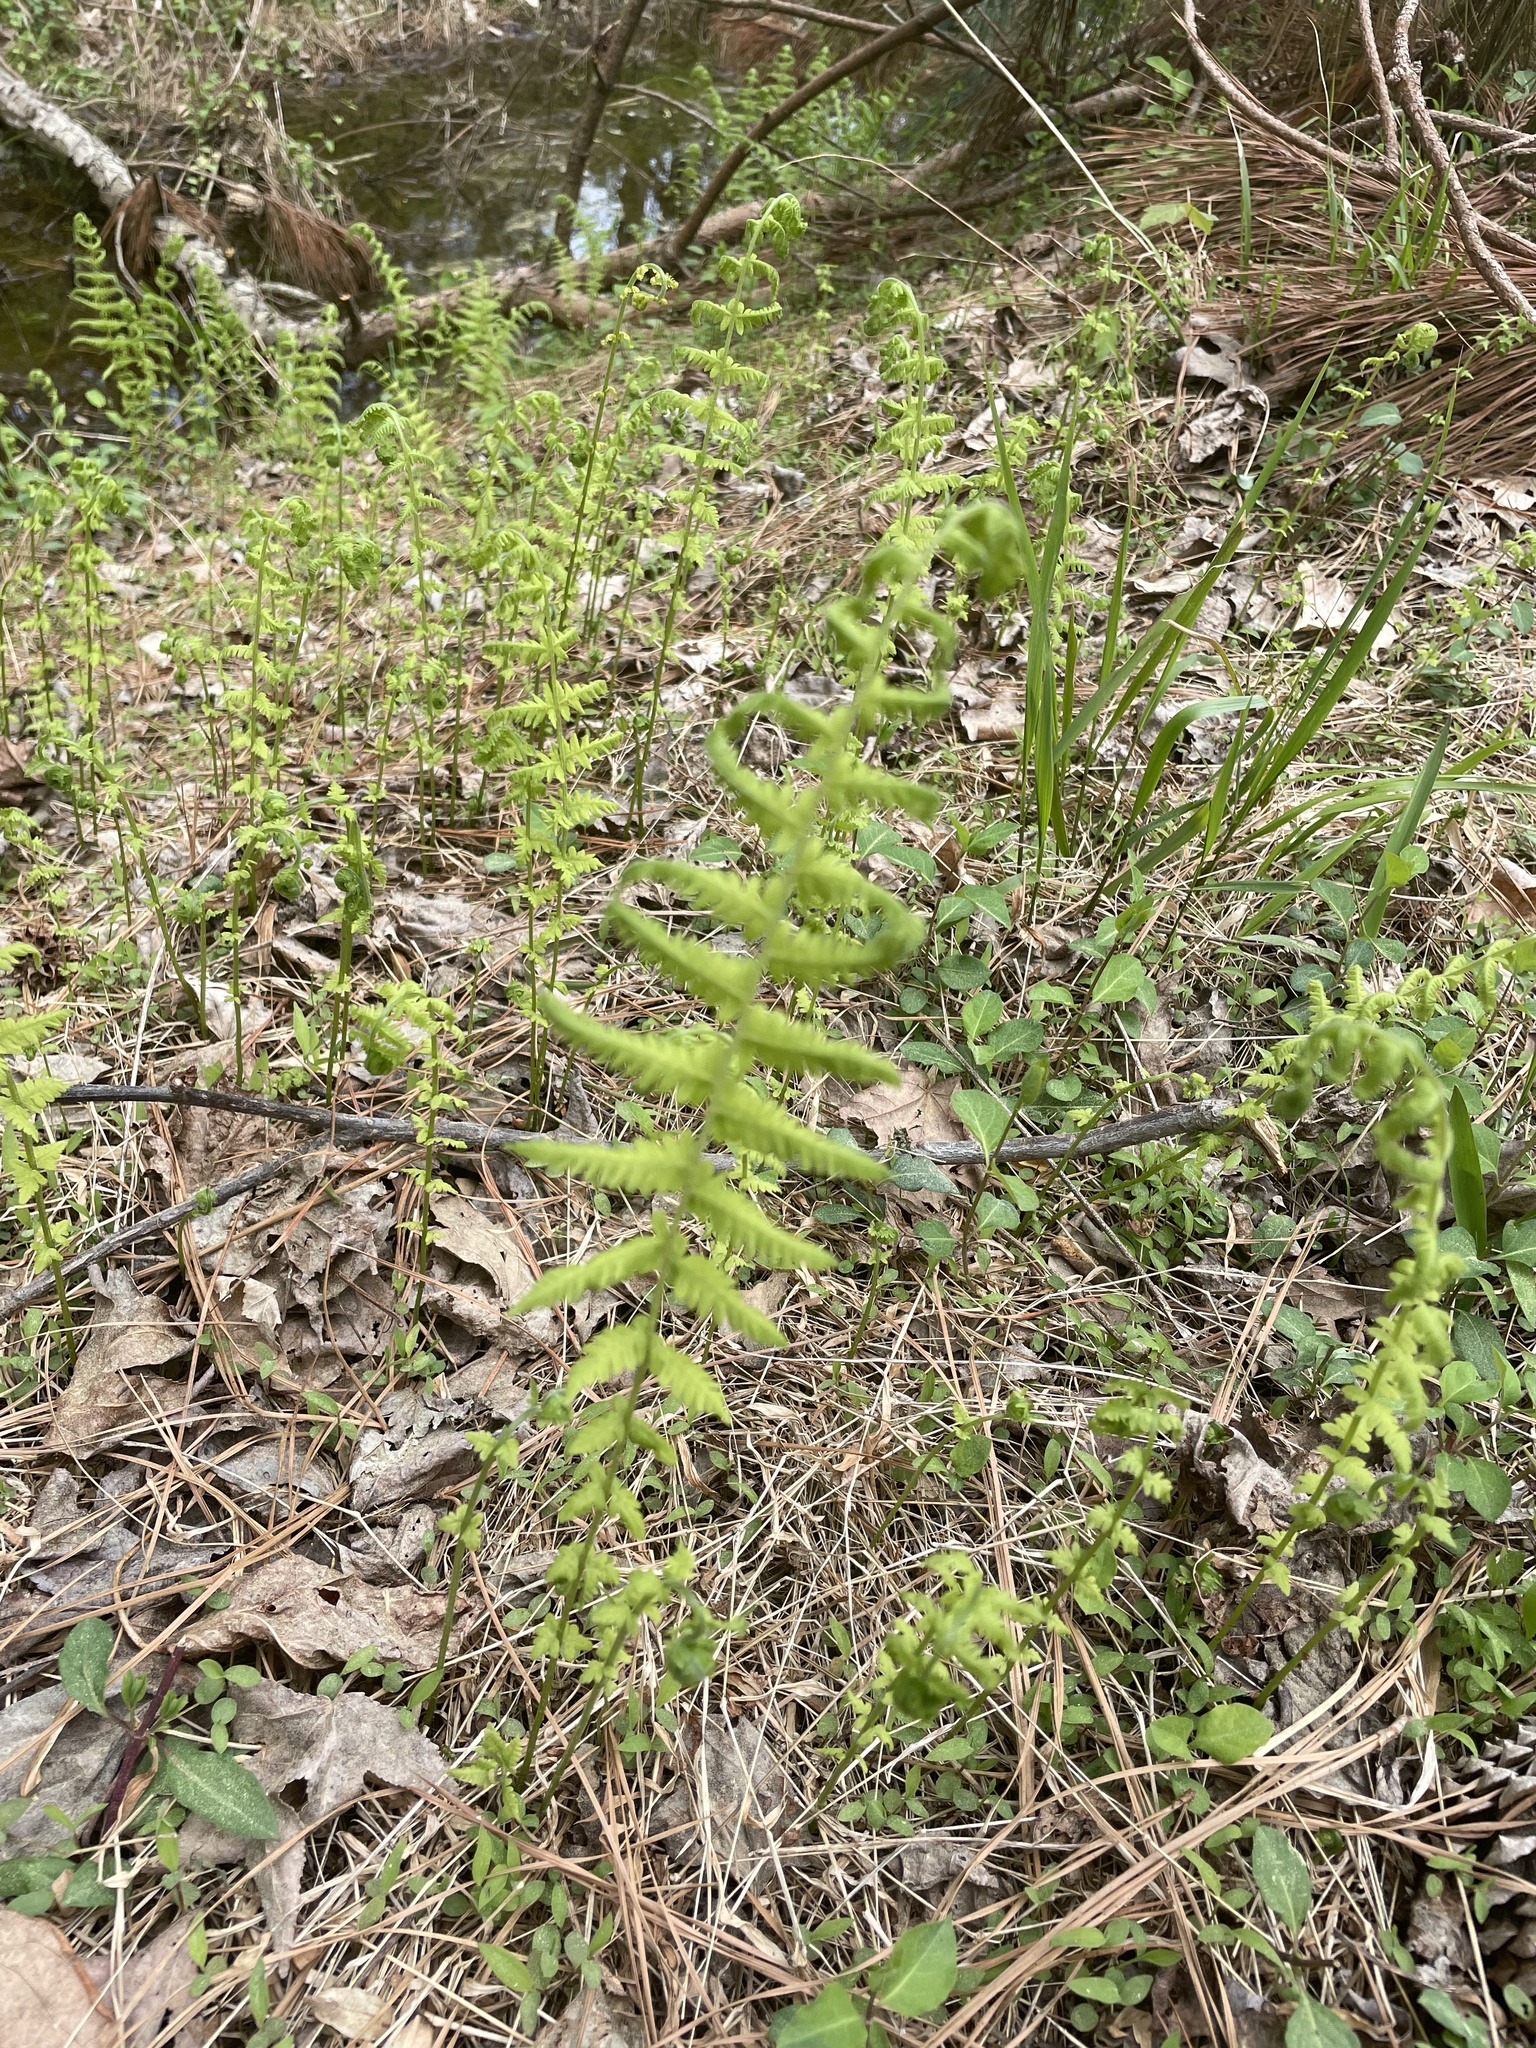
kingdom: Plantae
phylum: Tracheophyta
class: Polypodiopsida
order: Polypodiales
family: Thelypteridaceae
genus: Amauropelta
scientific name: Amauropelta noveboracensis
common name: New york fern
